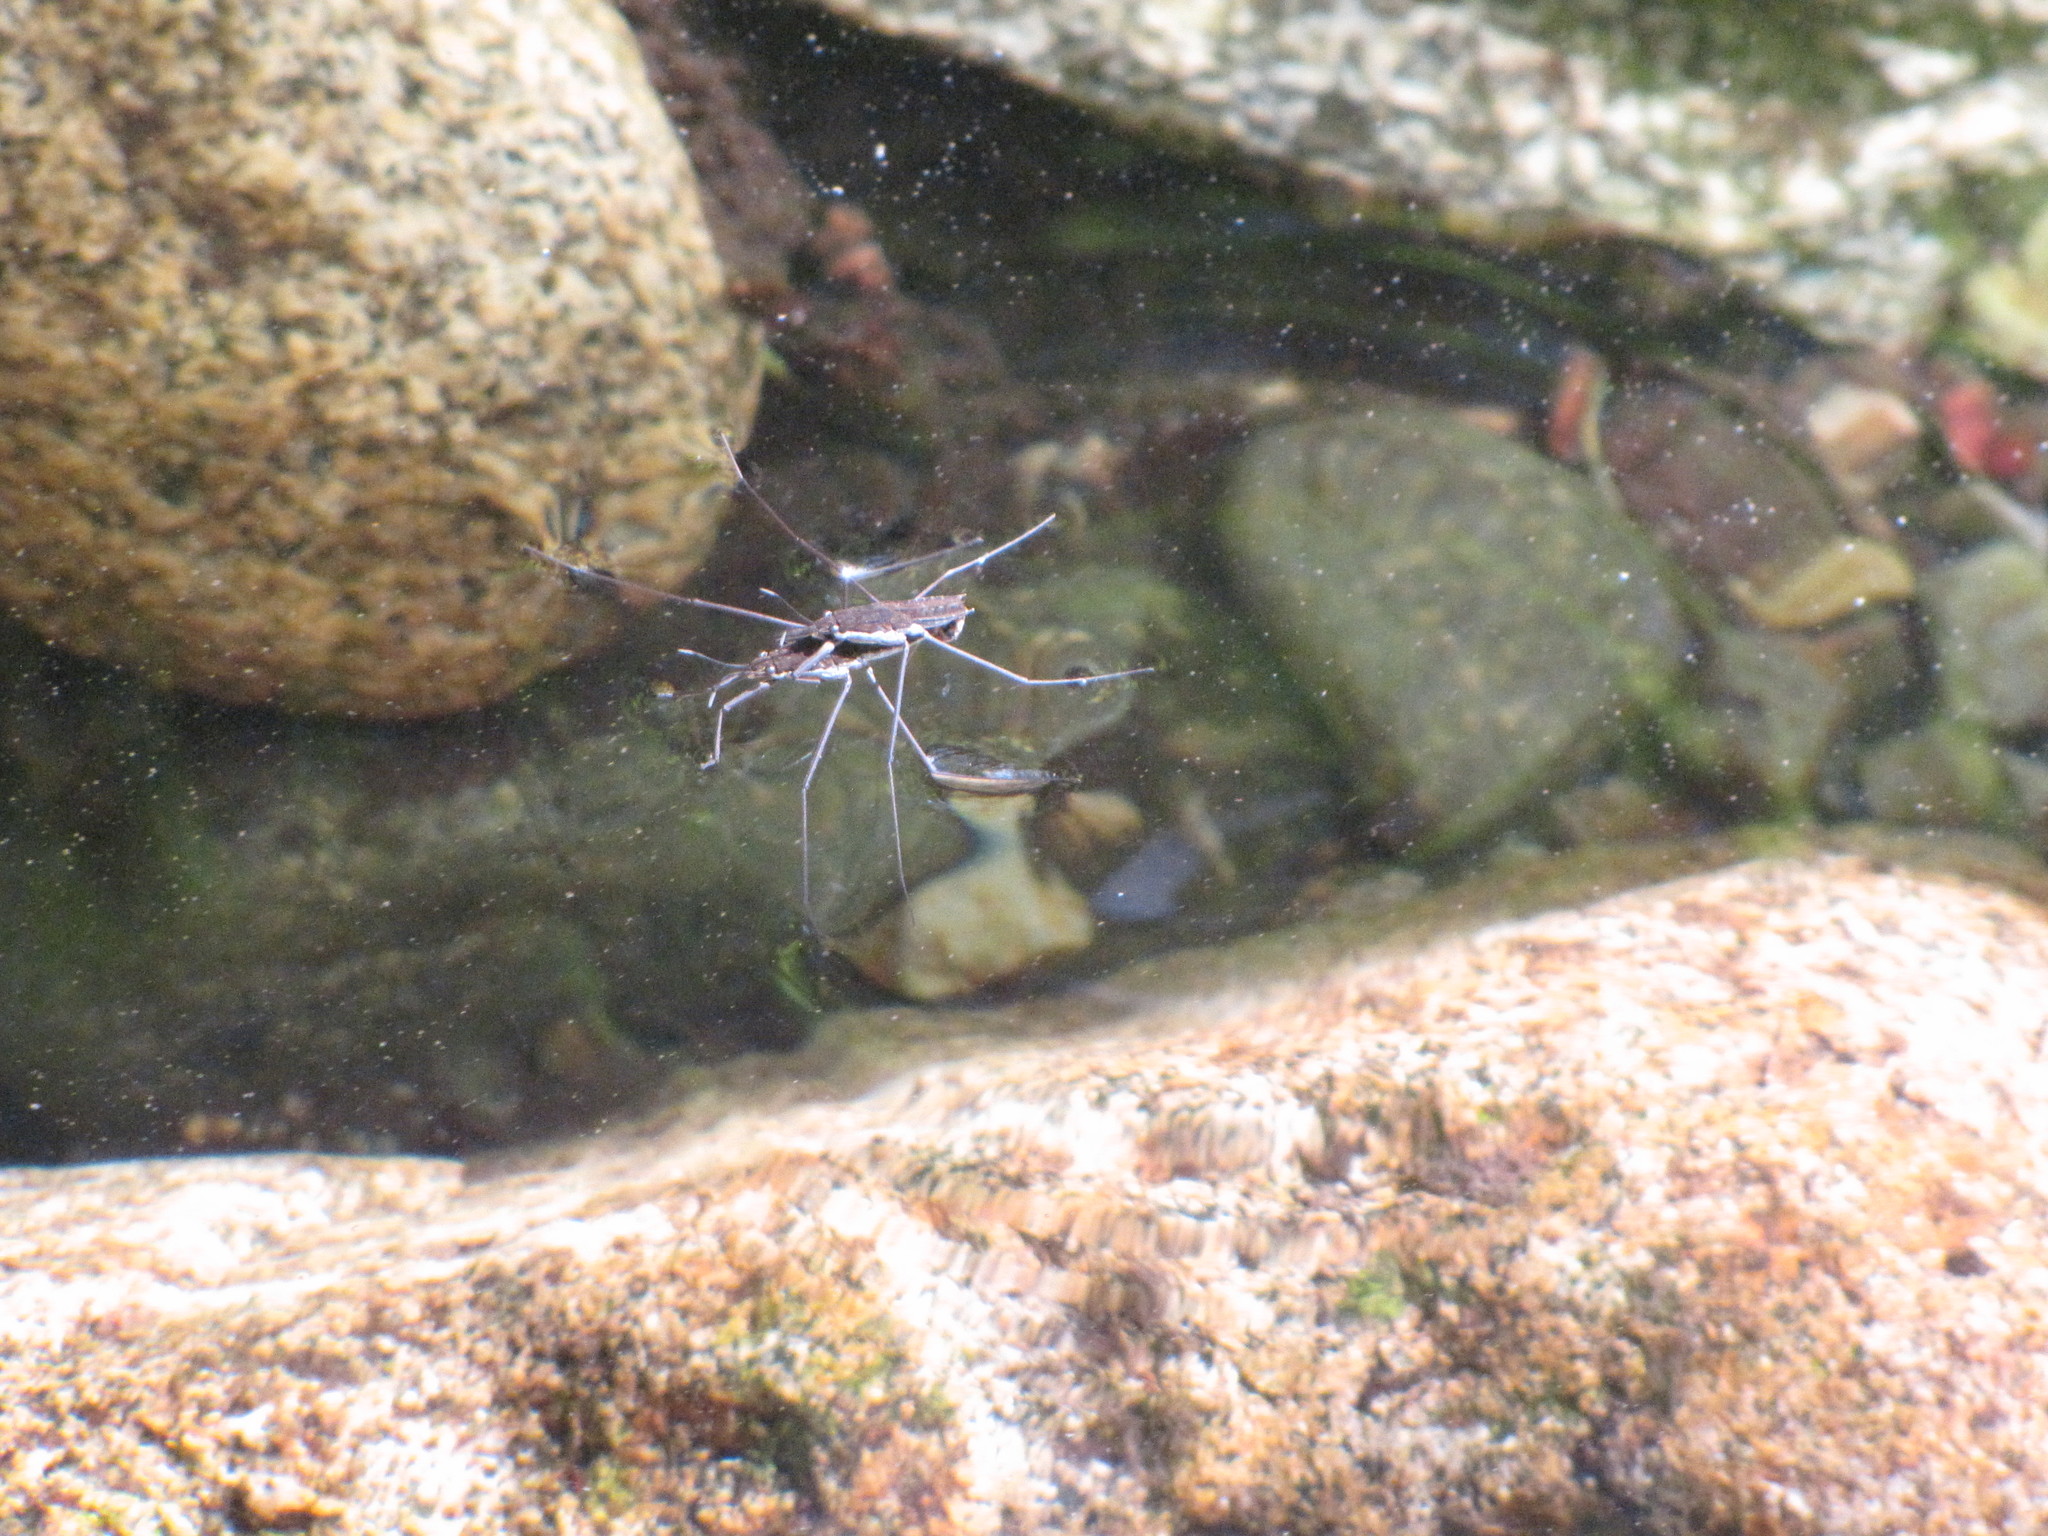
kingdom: Animalia
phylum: Arthropoda
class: Insecta
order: Hemiptera
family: Gerridae
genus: Aquarius
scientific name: Aquarius remigis
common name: Common water strider
